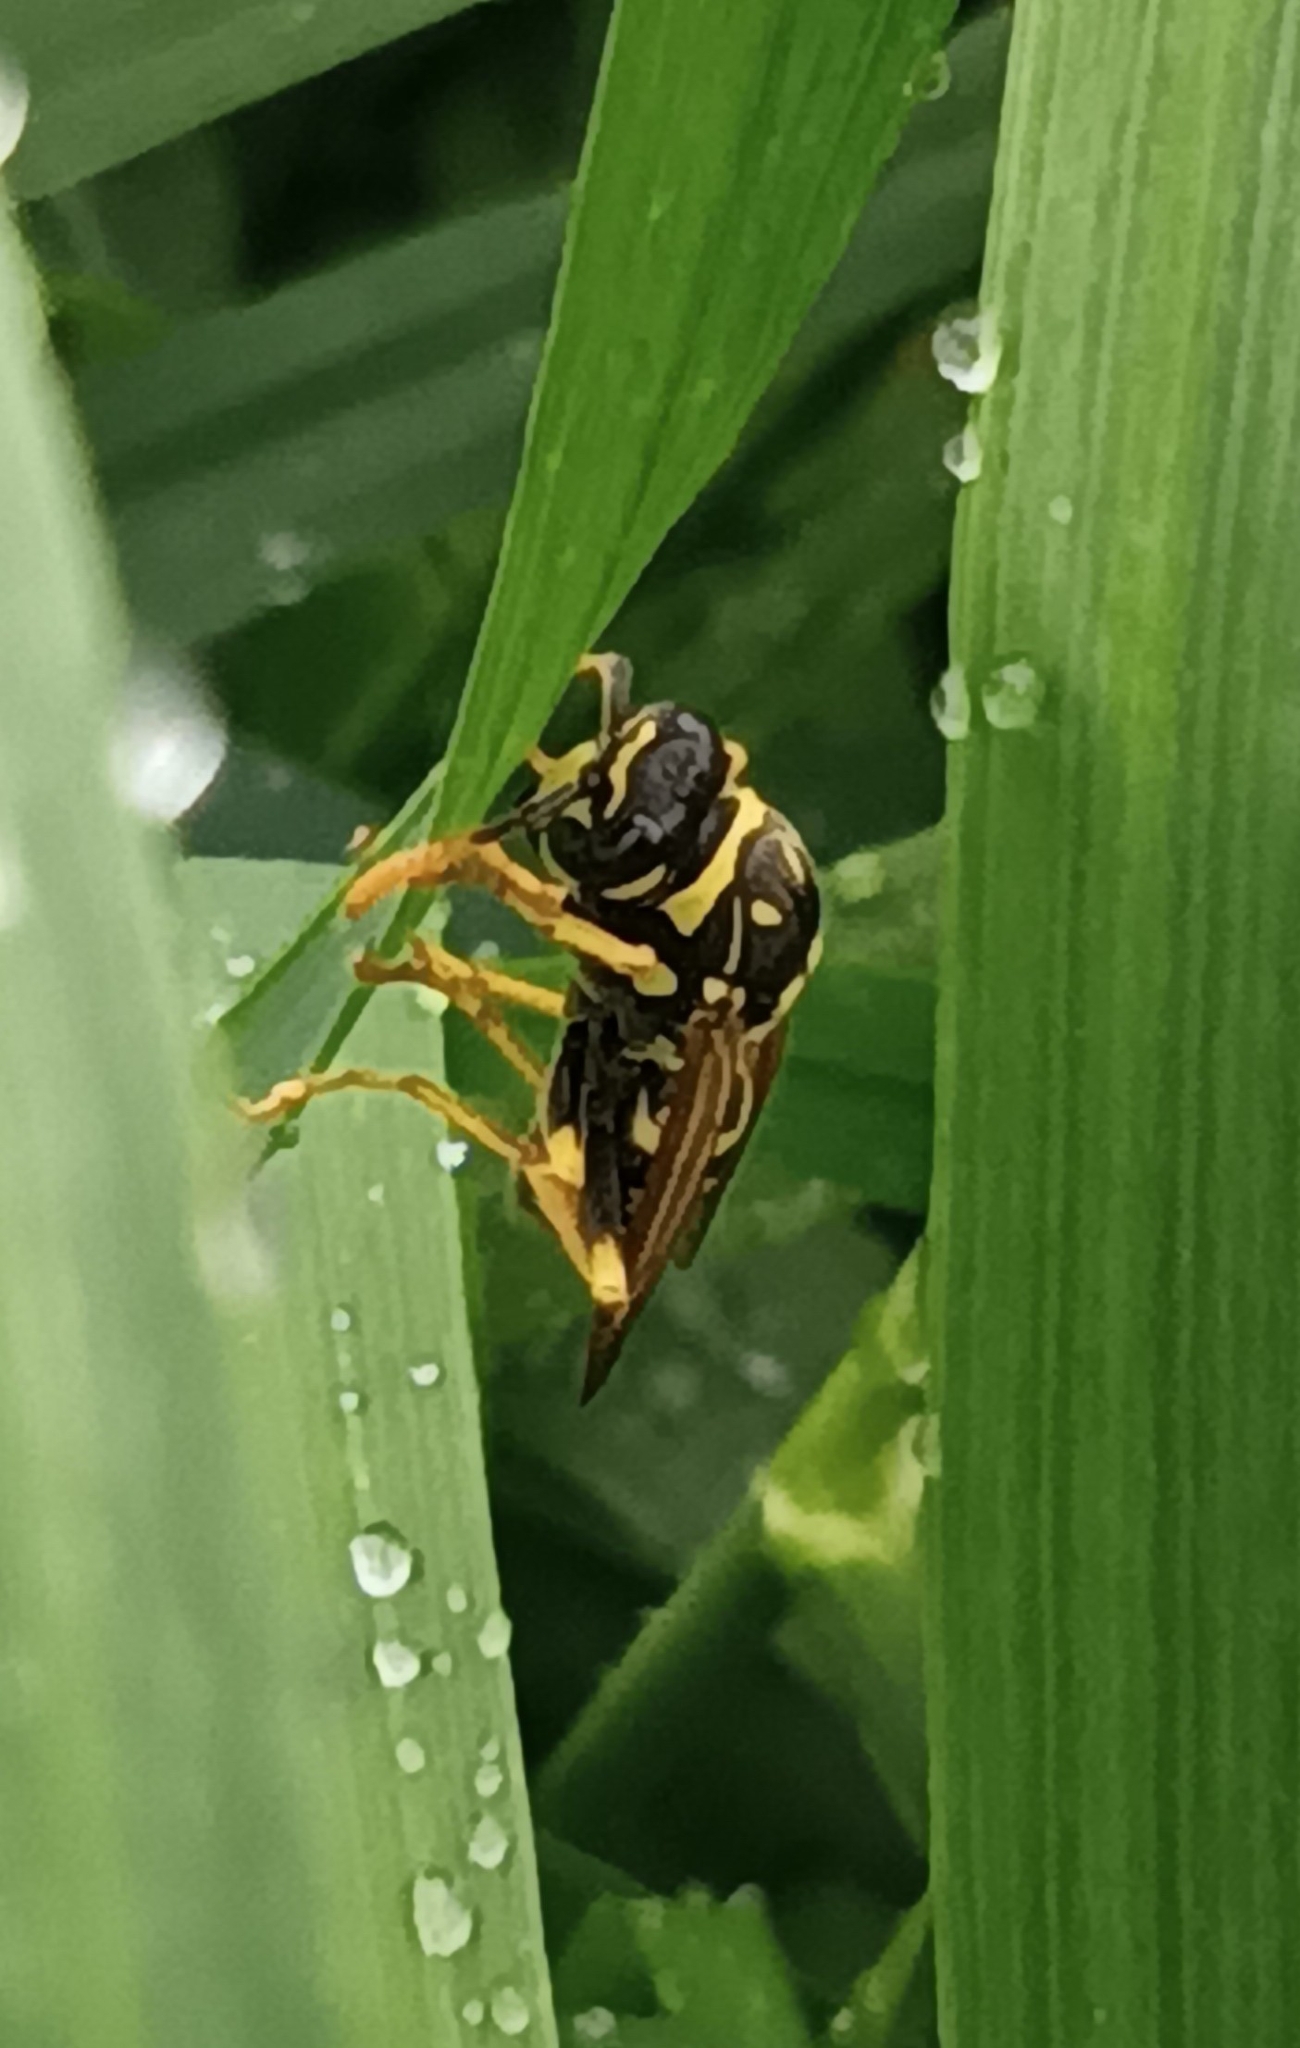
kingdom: Animalia
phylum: Arthropoda
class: Insecta
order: Hymenoptera
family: Eumenidae
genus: Polistes
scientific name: Polistes dominula
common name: Paper wasp
